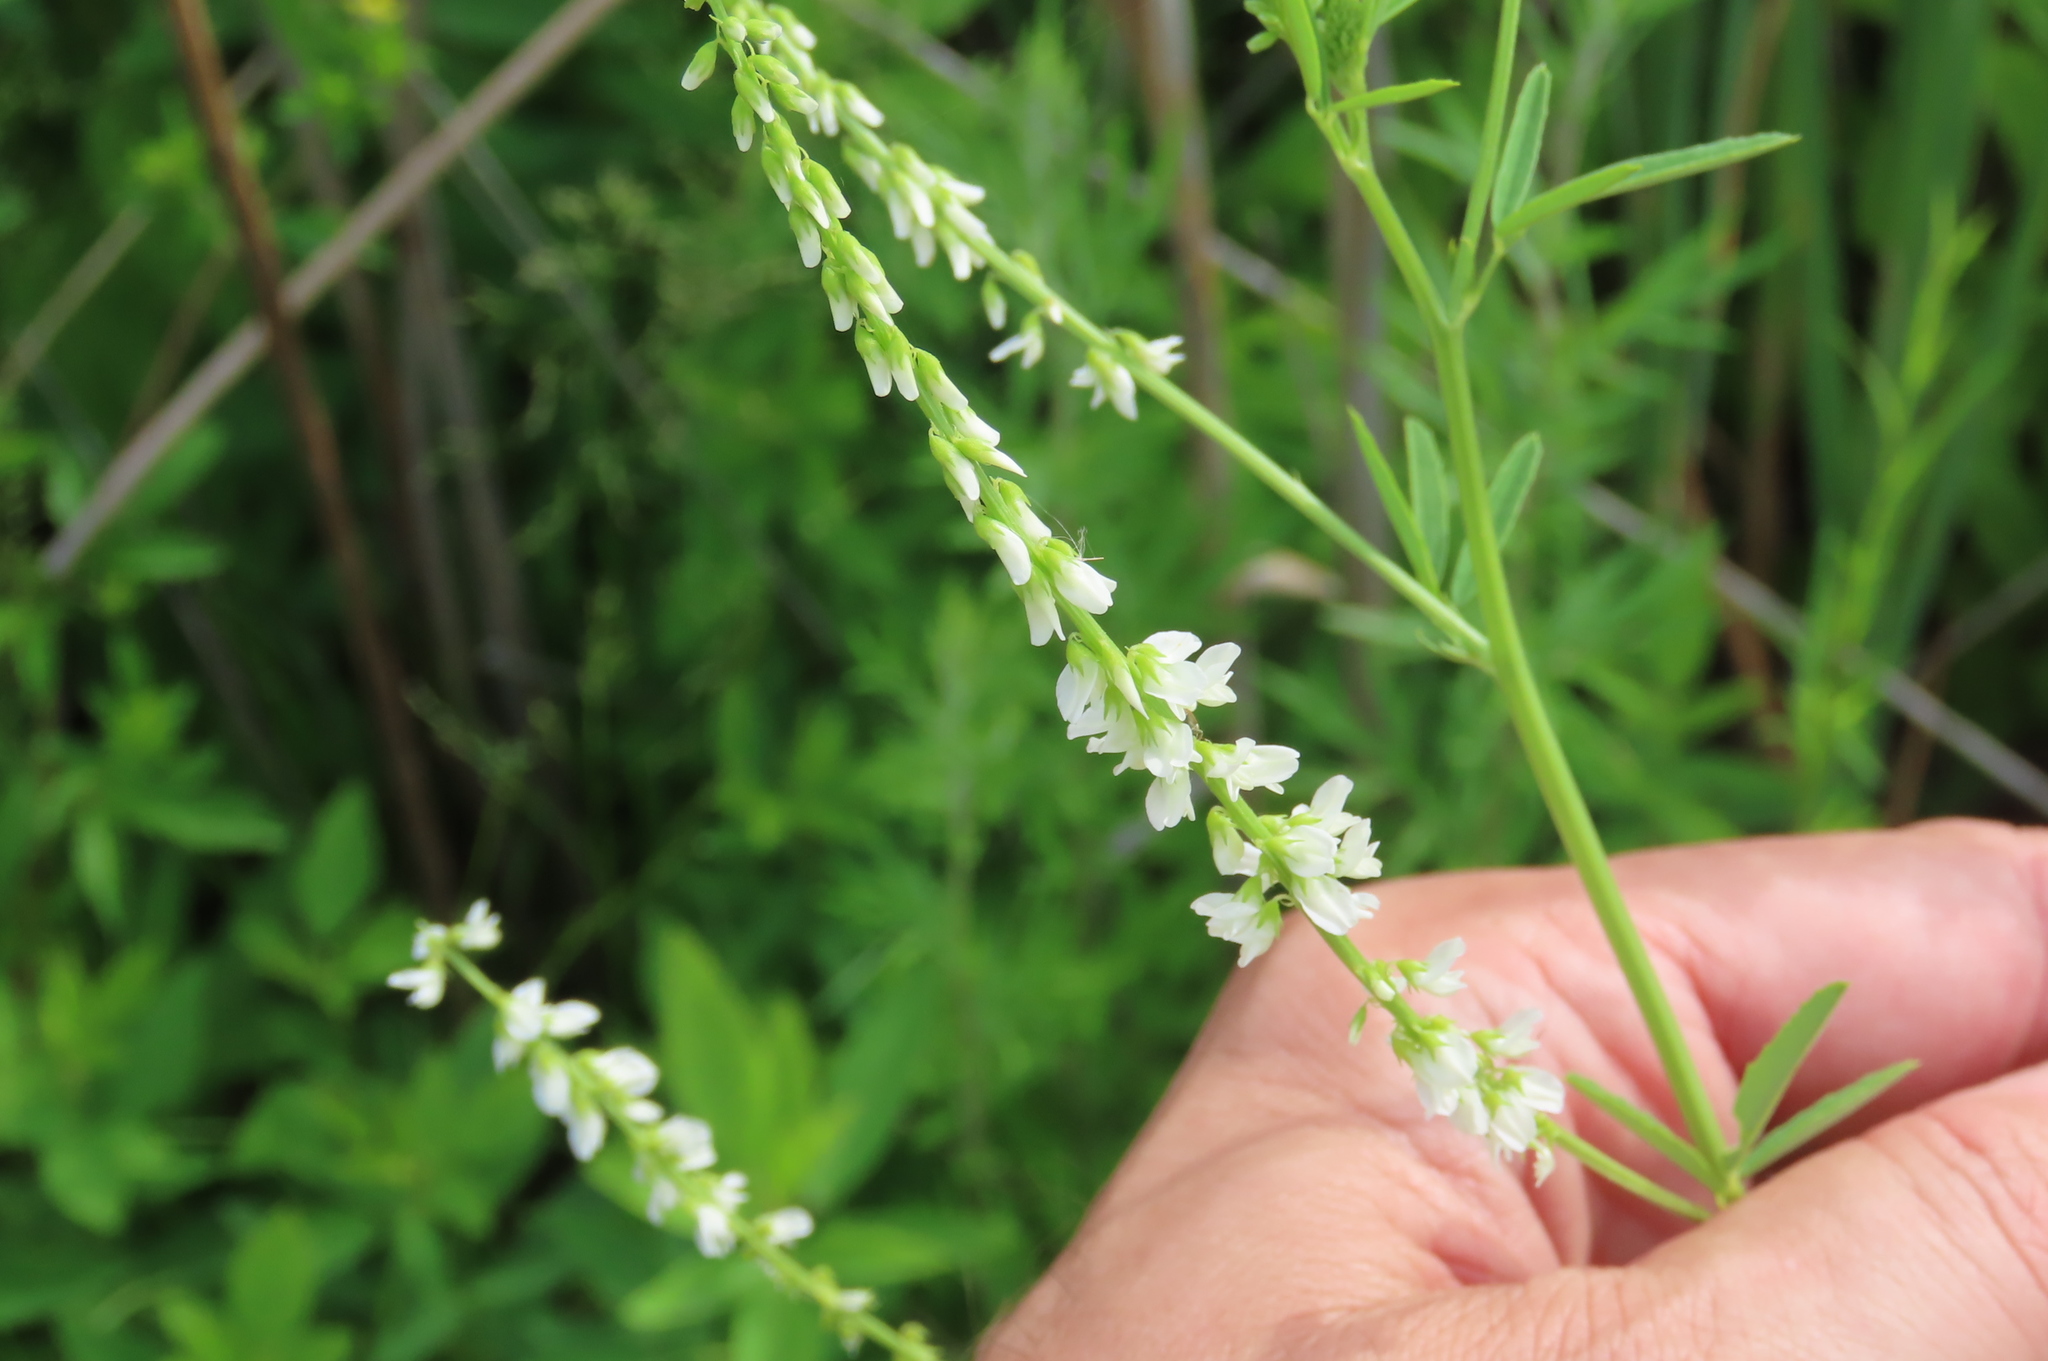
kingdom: Plantae
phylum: Tracheophyta
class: Magnoliopsida
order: Fabales
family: Fabaceae
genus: Melilotus
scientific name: Melilotus albus
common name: White melilot
